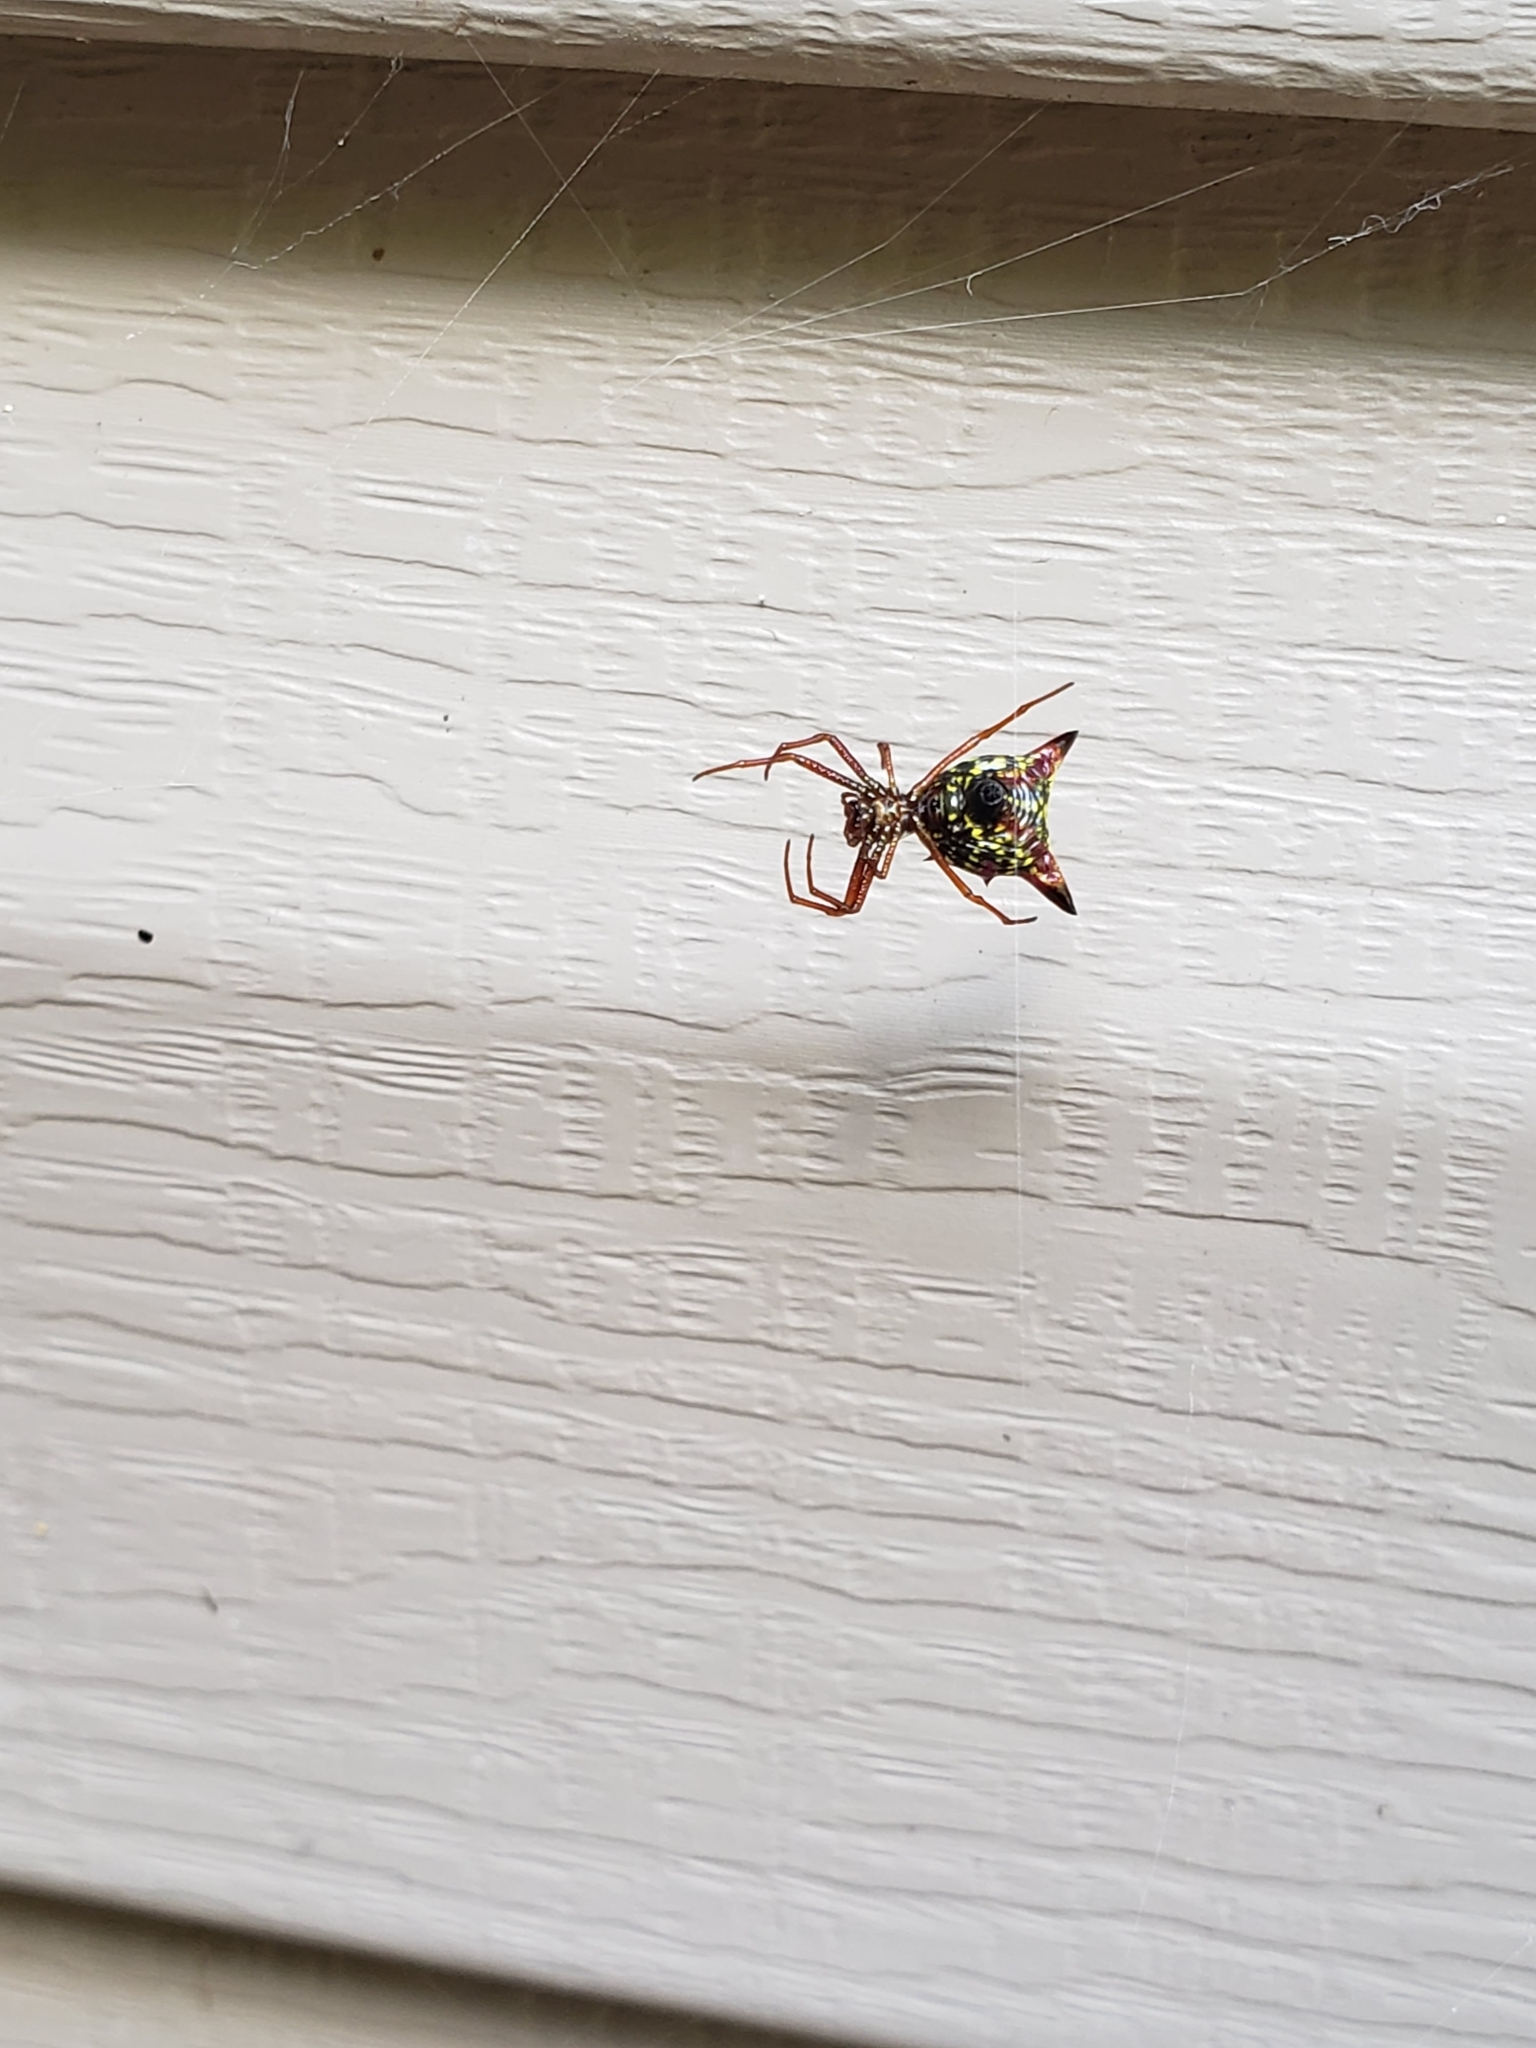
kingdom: Animalia
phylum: Arthropoda
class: Arachnida
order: Araneae
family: Araneidae
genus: Micrathena
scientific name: Micrathena sagittata
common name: Orb weavers
